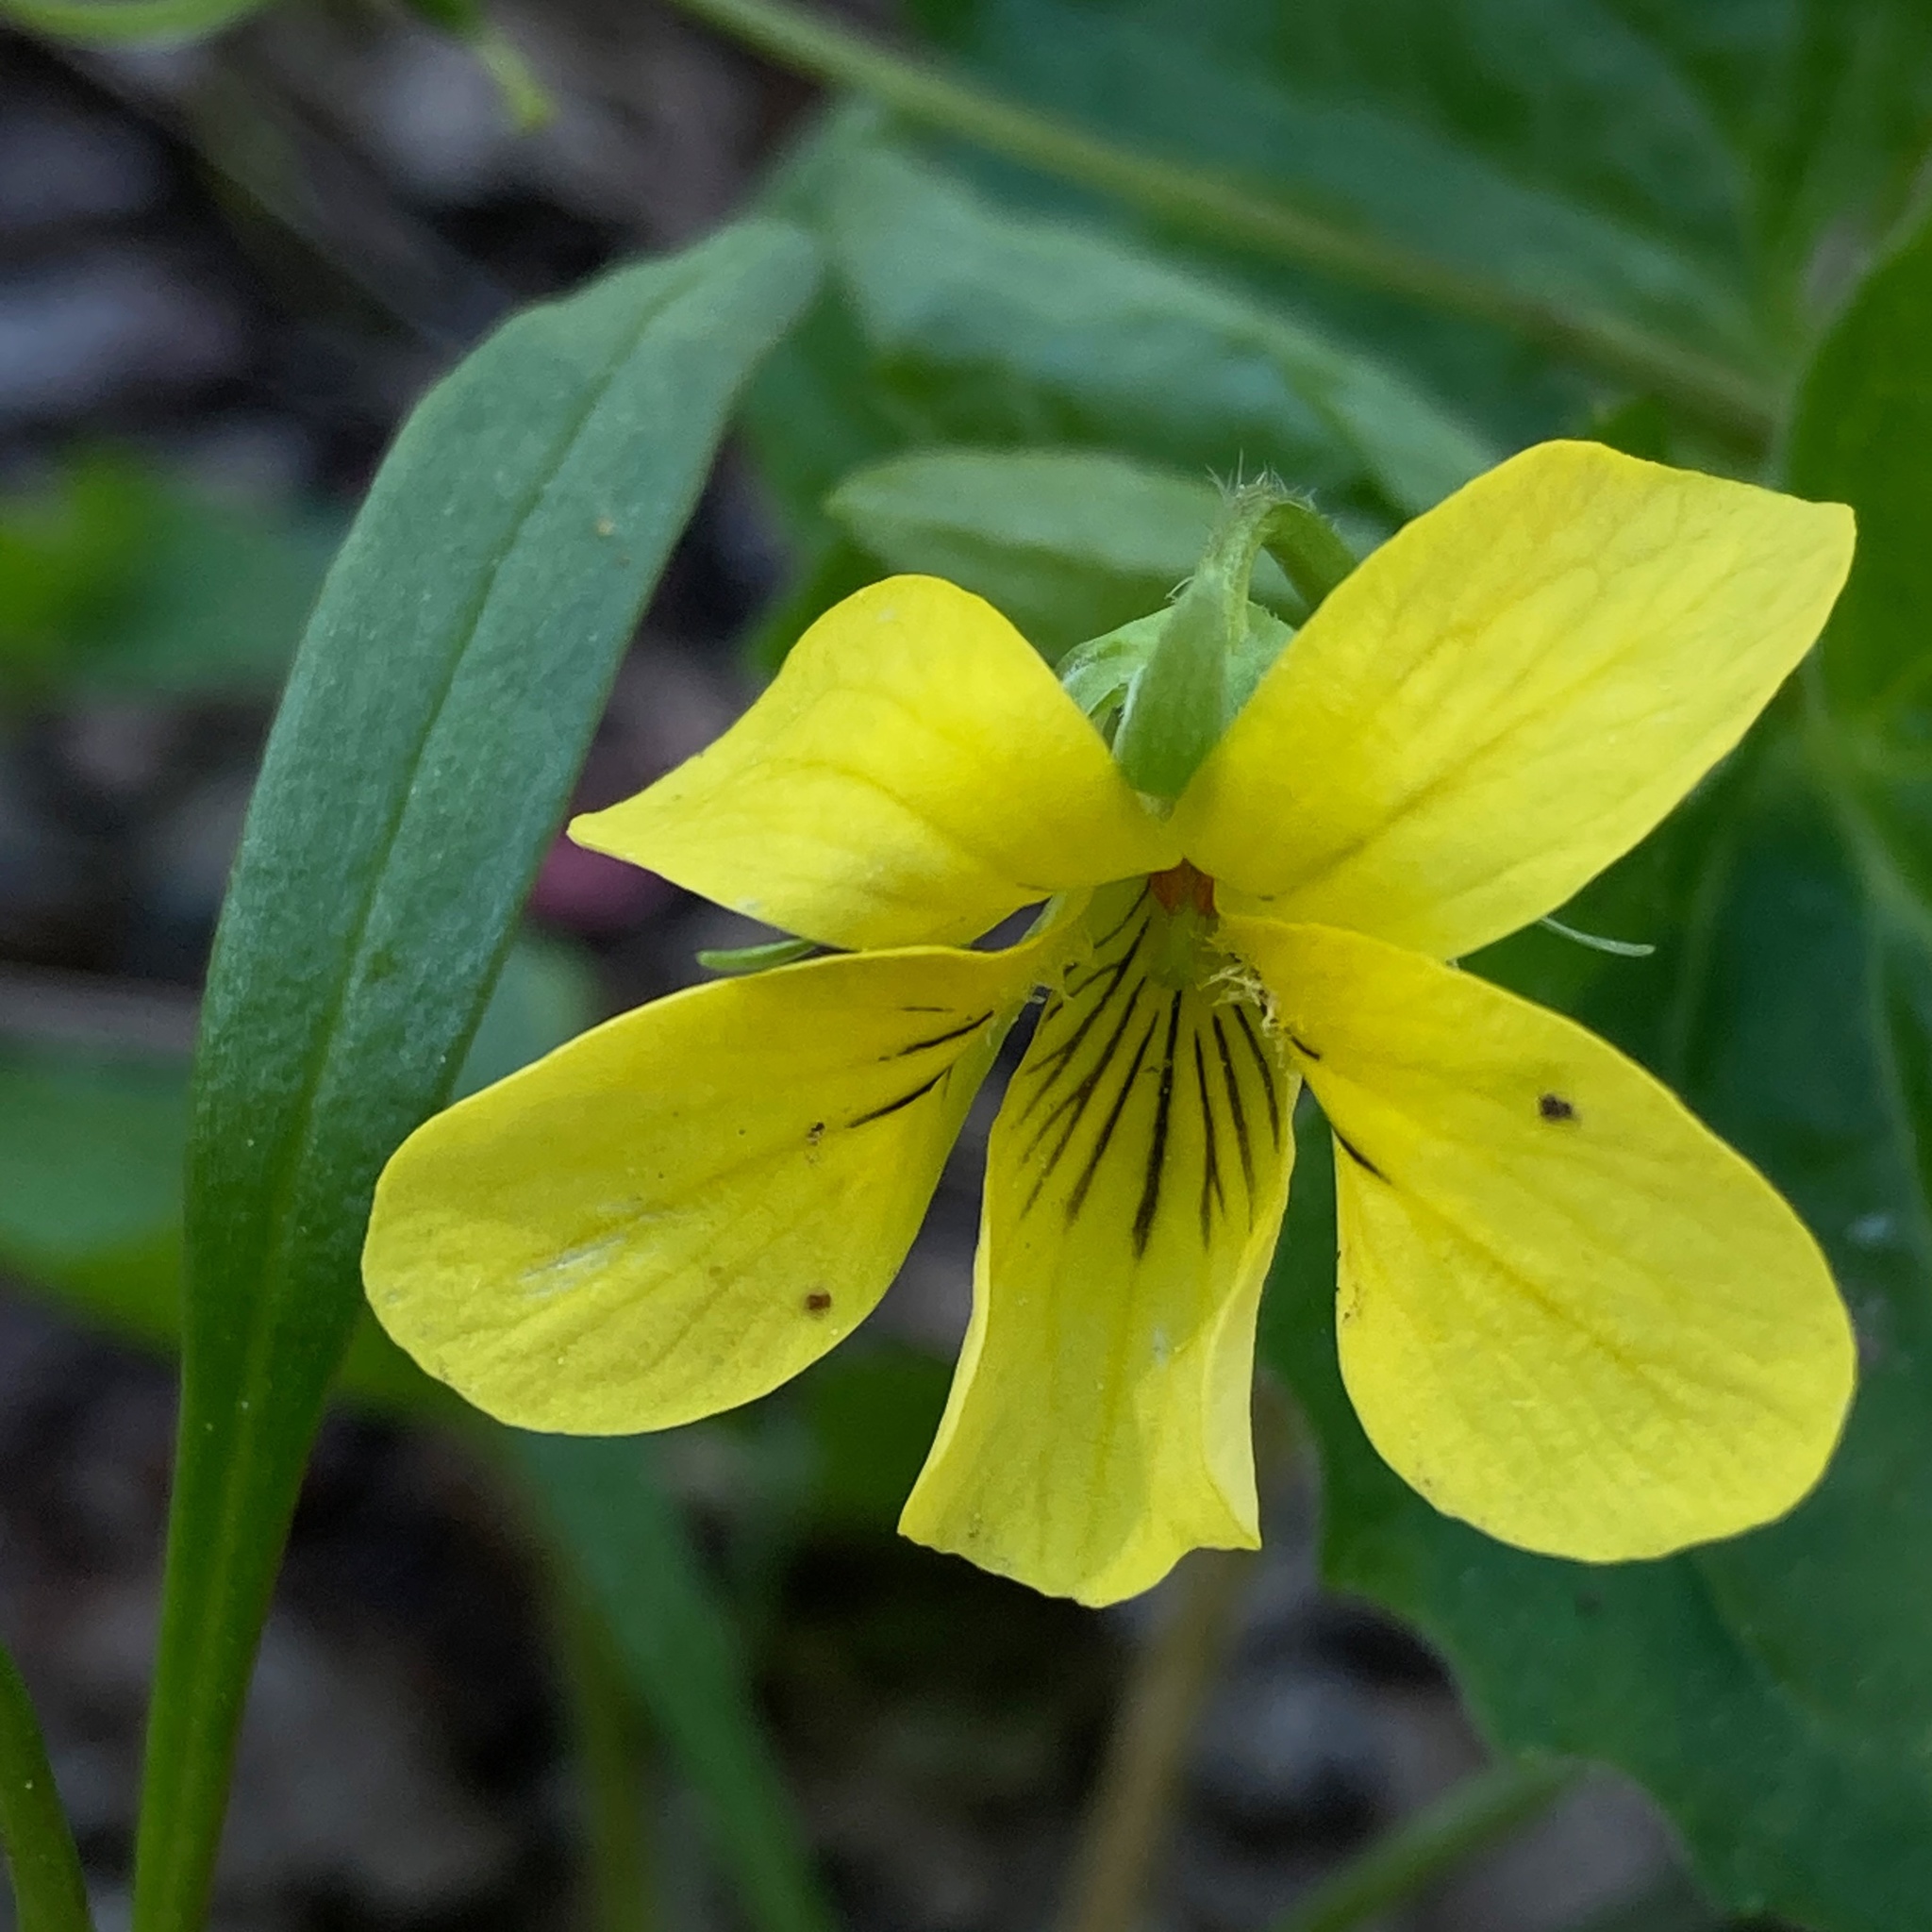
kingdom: Plantae
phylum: Tracheophyta
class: Magnoliopsida
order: Malpighiales
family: Violaceae
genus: Viola
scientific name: Viola eriocarpa
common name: Smooth yellow violet
